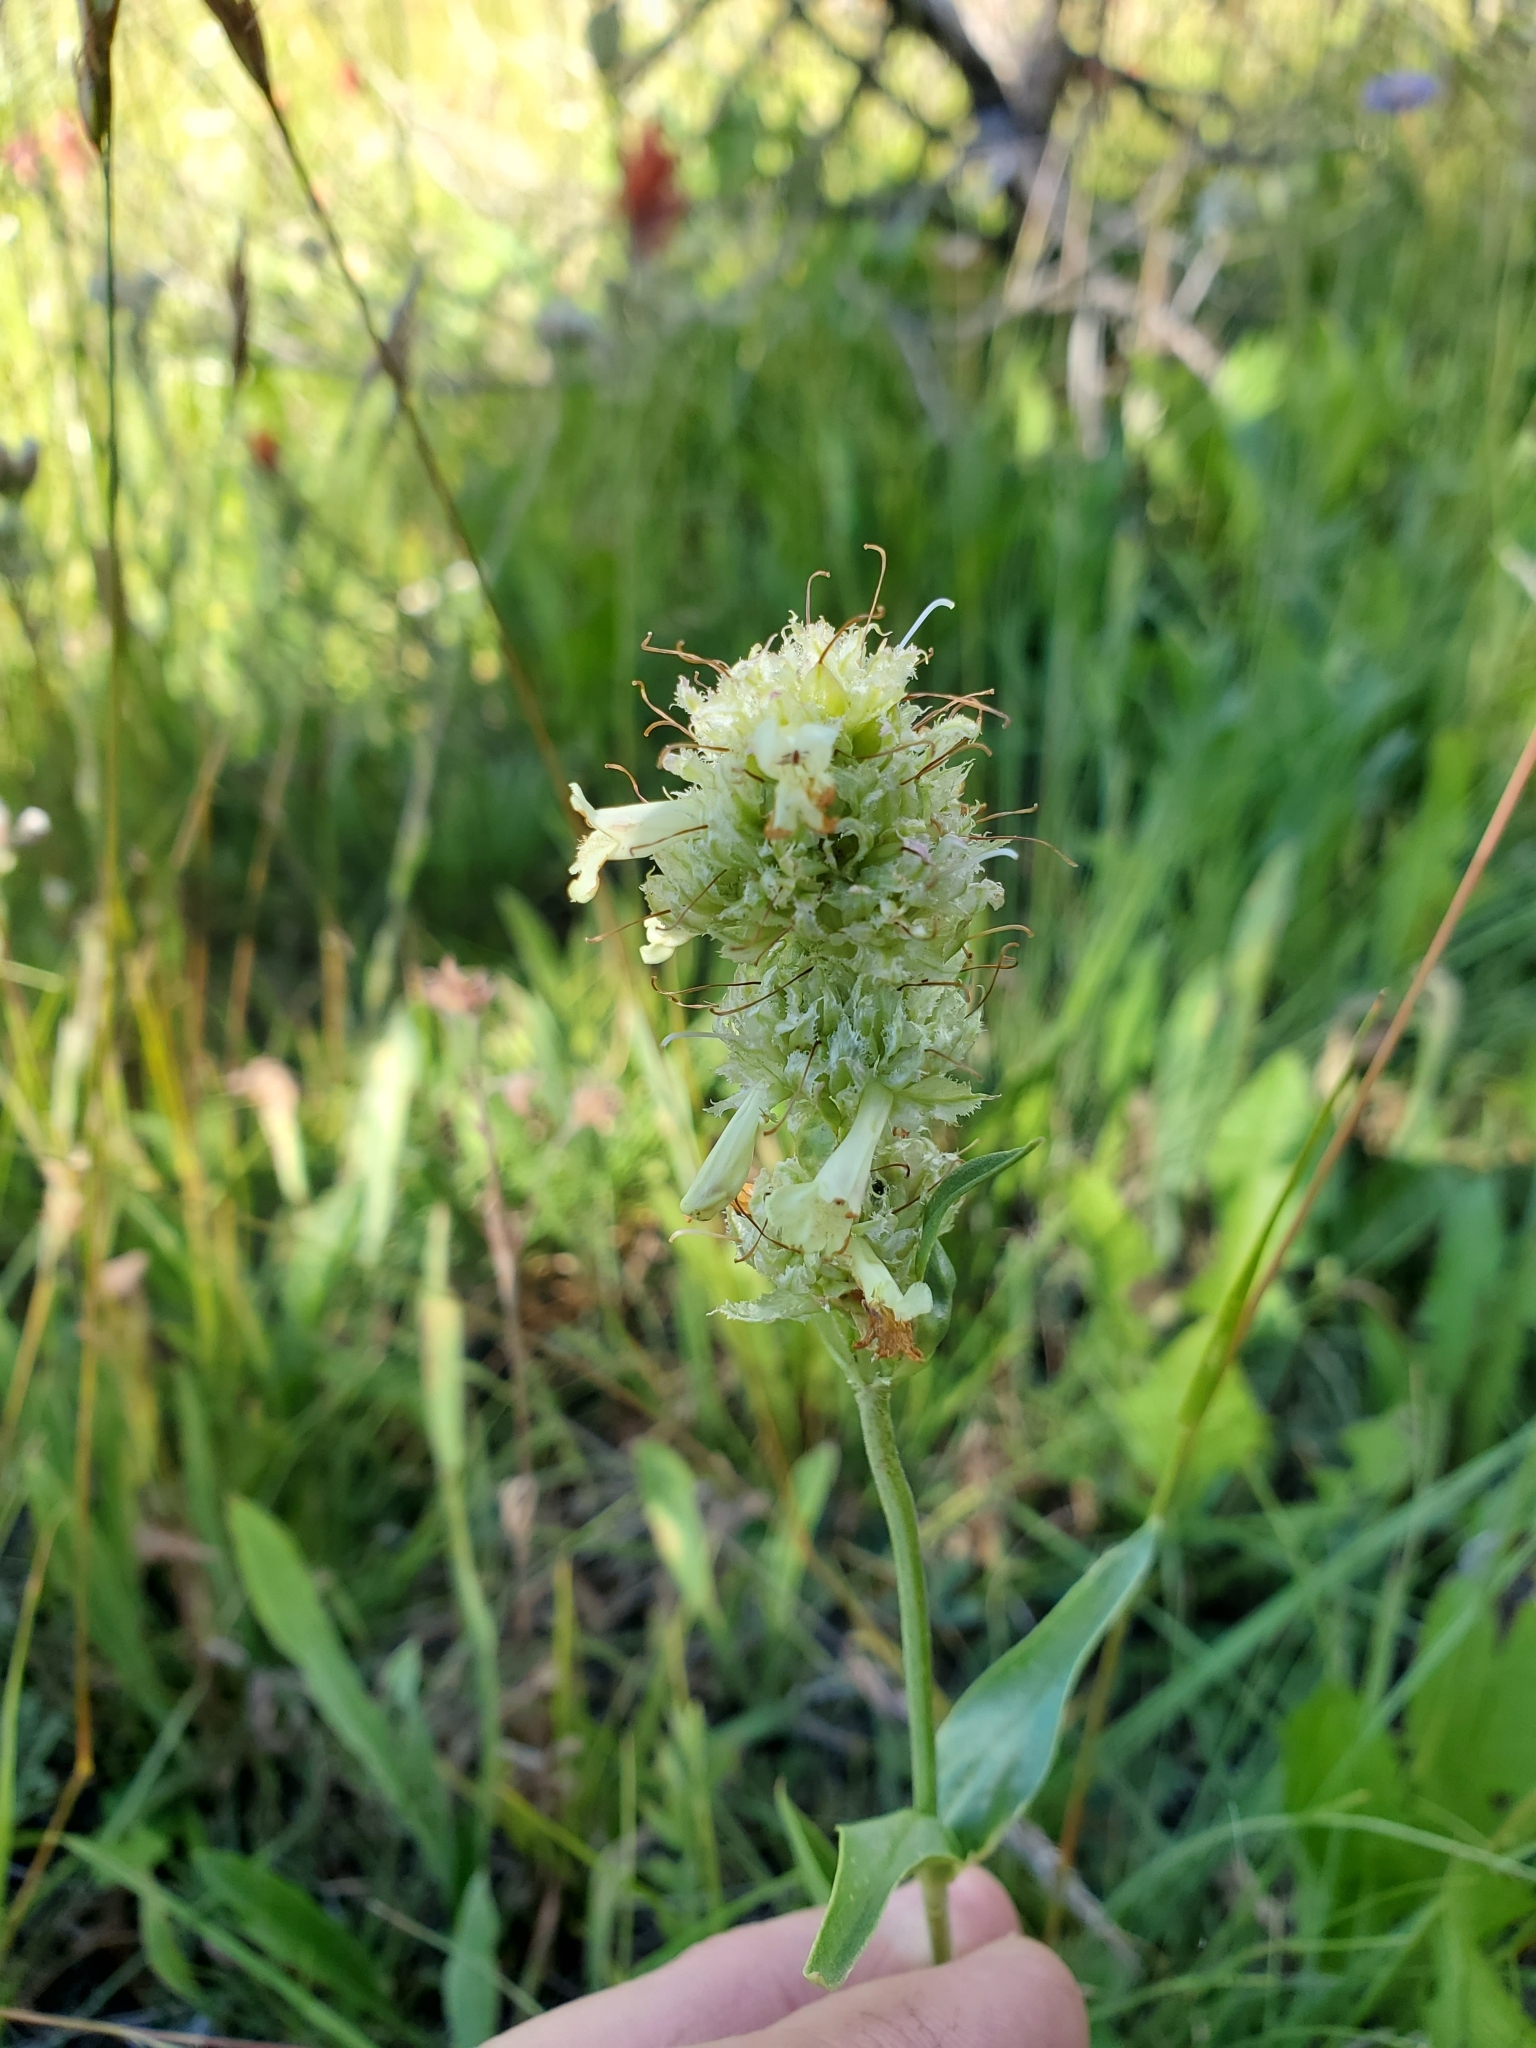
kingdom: Plantae
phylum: Tracheophyta
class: Magnoliopsida
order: Lamiales
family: Plantaginaceae
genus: Penstemon
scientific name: Penstemon confertus
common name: Lesser yellow beardtongue
